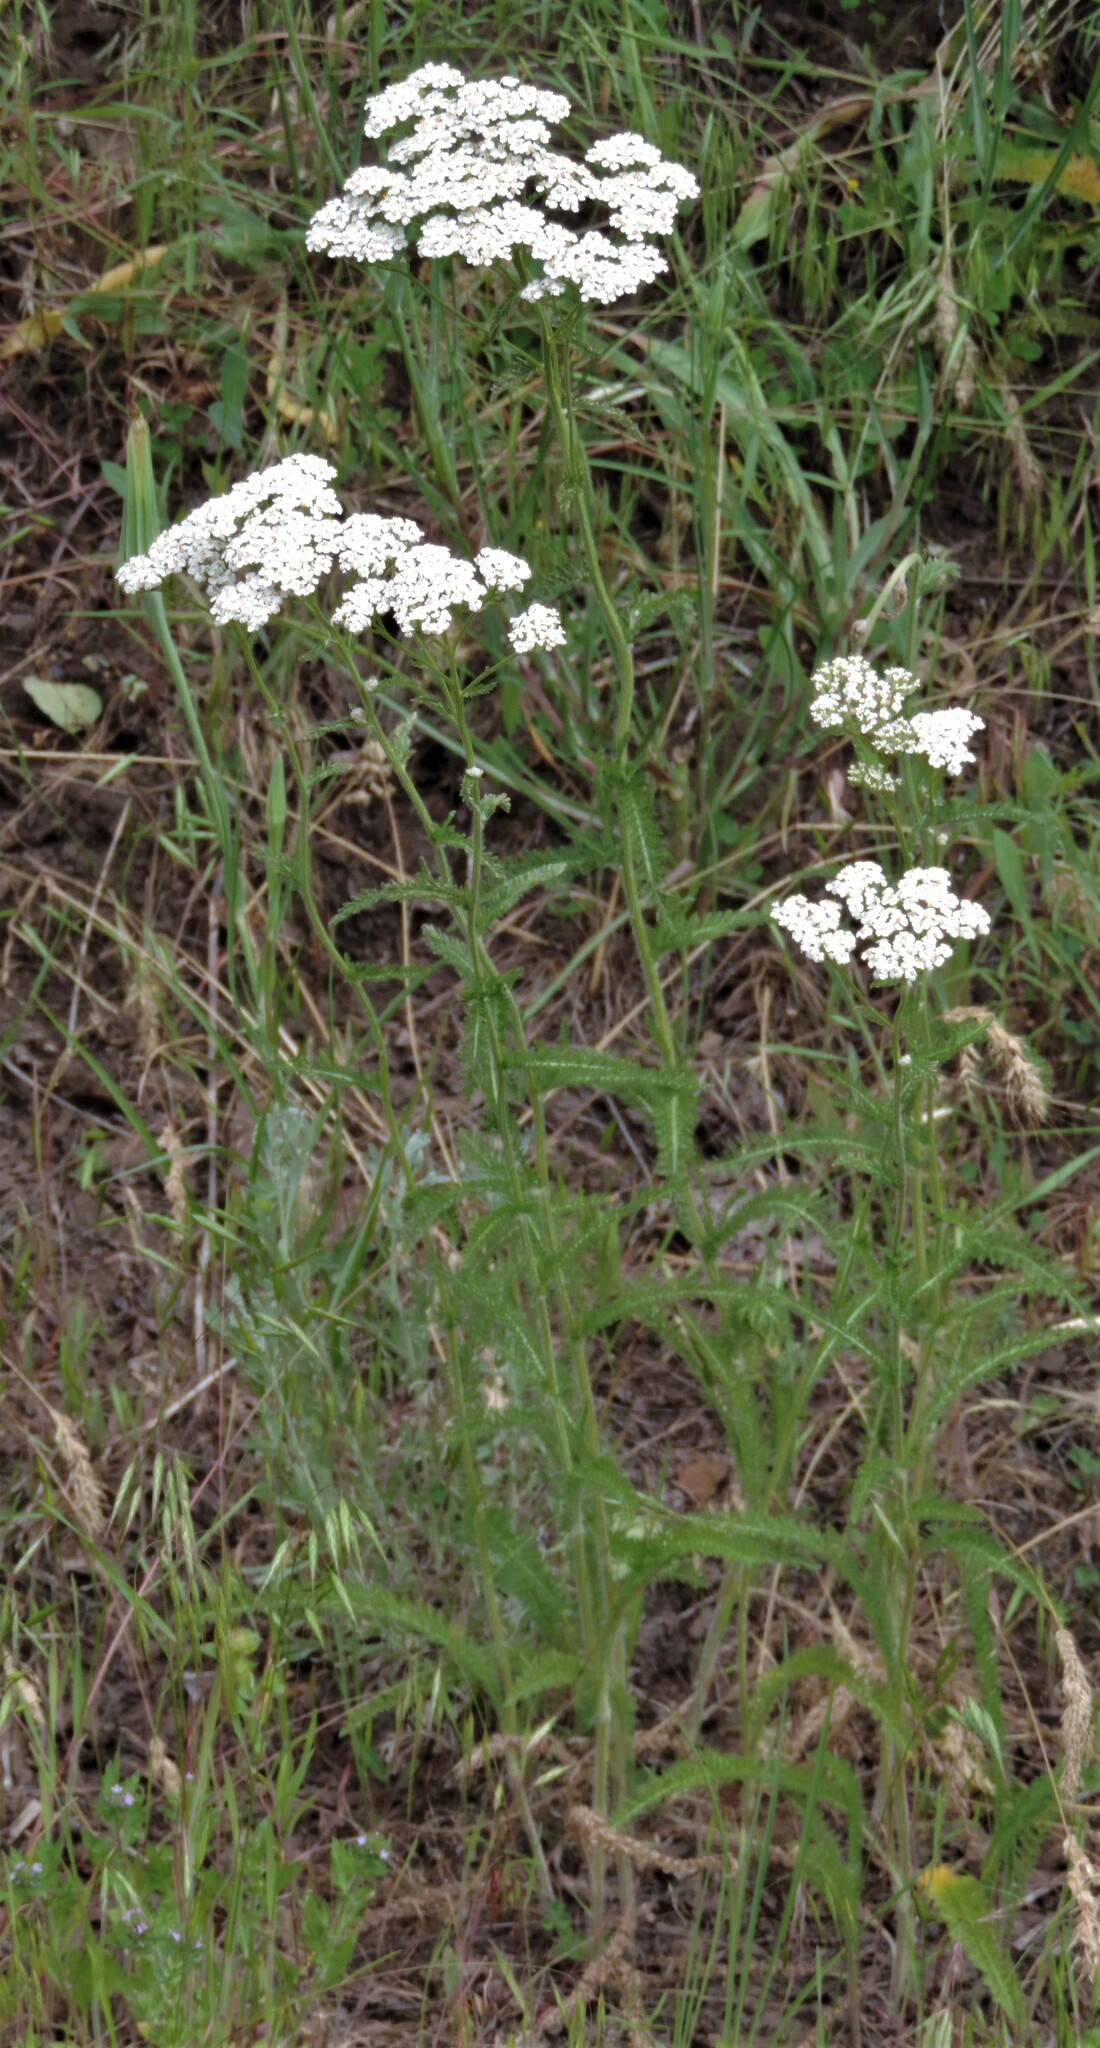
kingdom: Plantae
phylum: Tracheophyta
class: Magnoliopsida
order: Asterales
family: Asteraceae
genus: Achillea
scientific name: Achillea millefolium
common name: Yarrow
